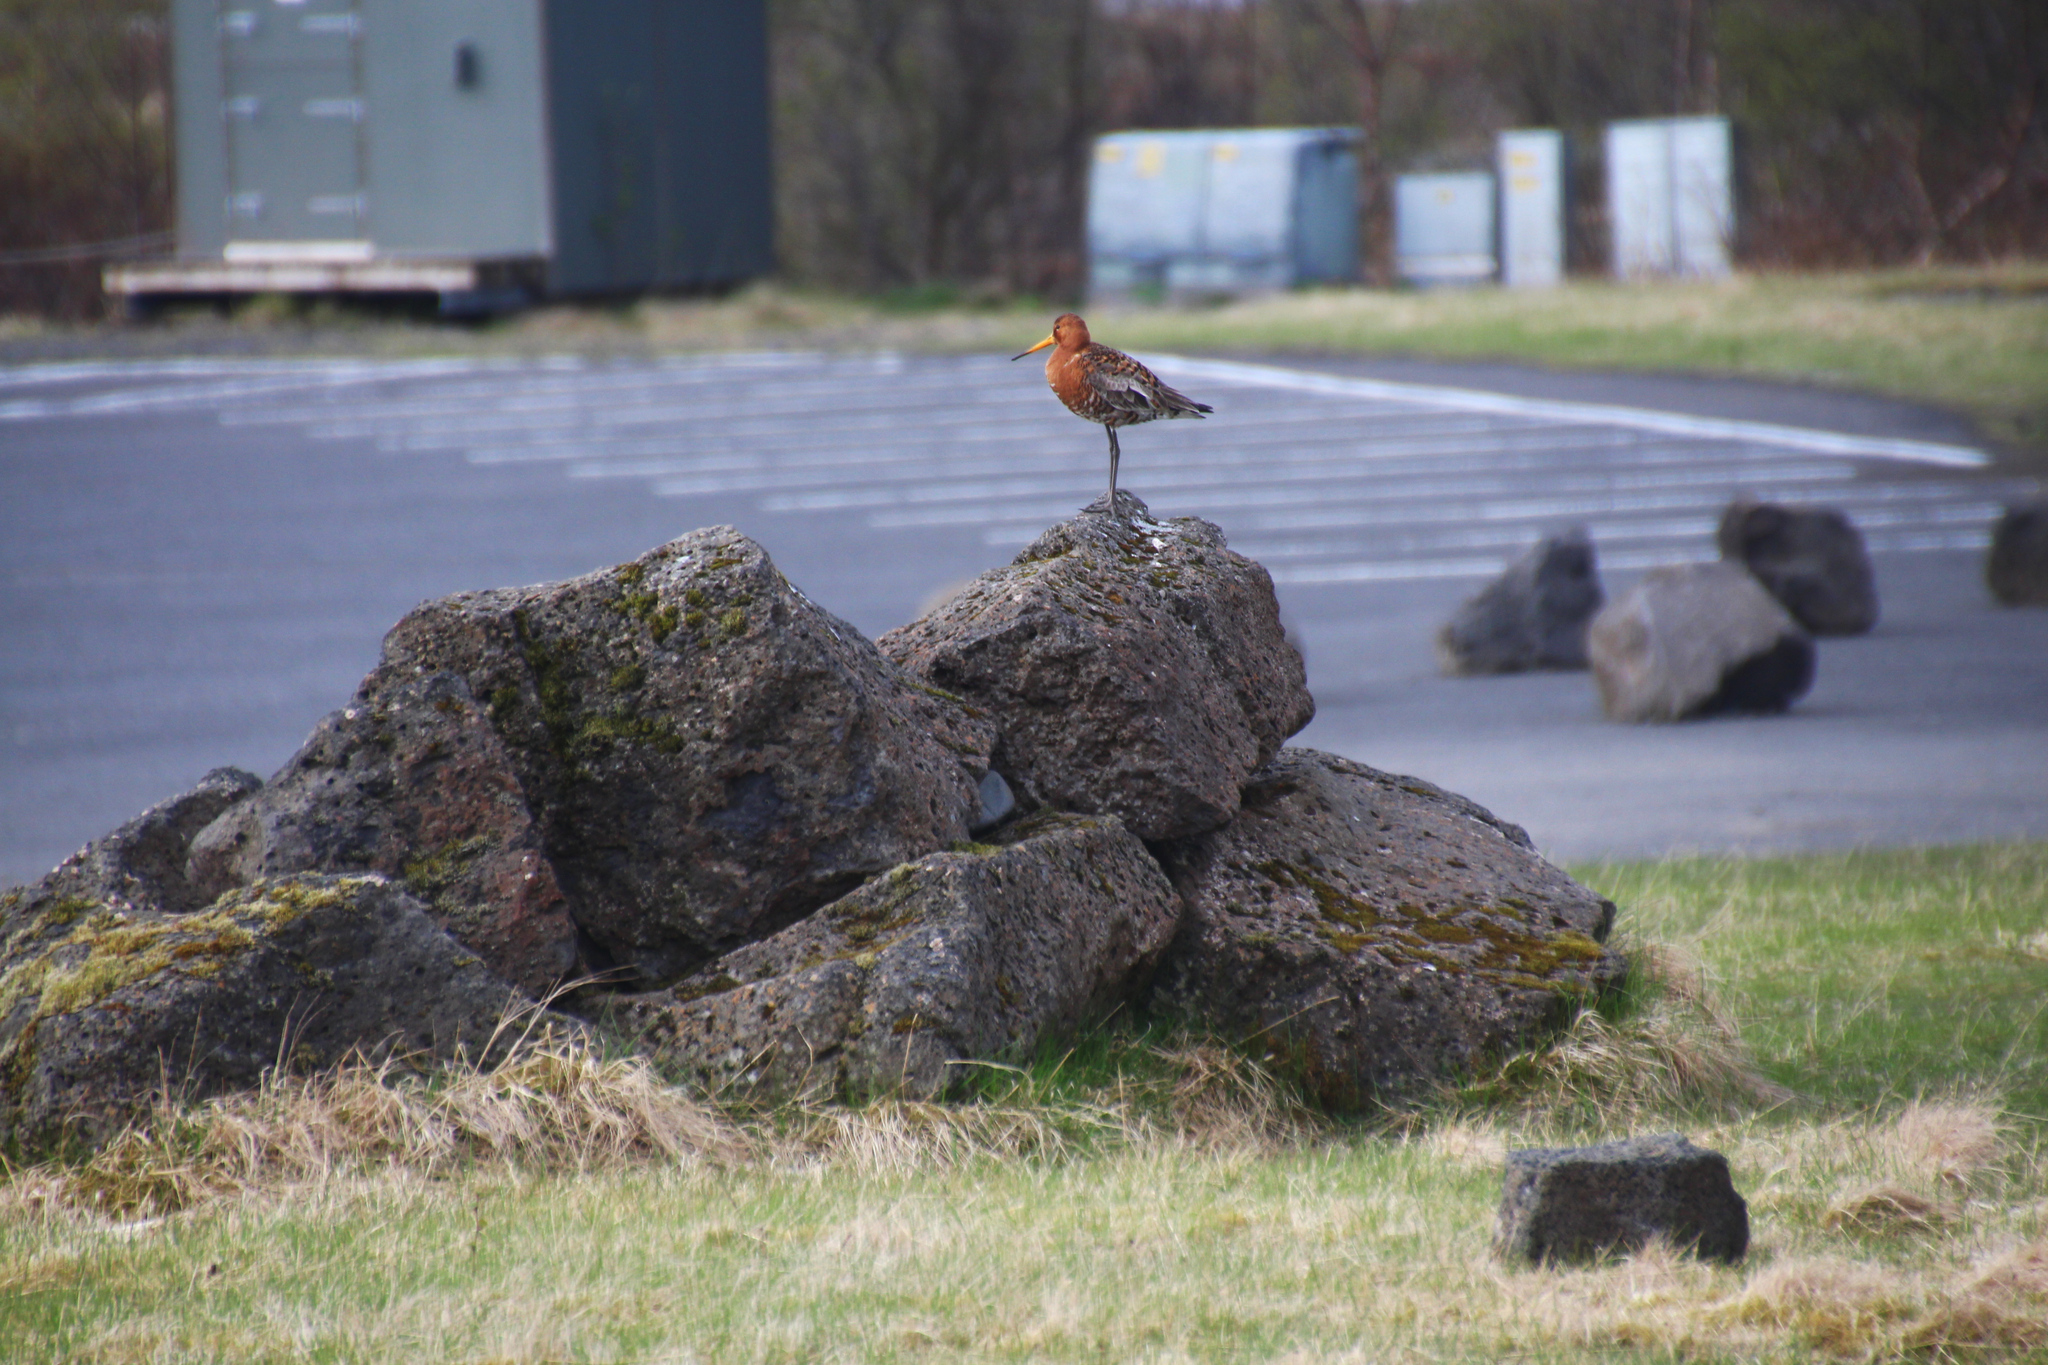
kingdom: Animalia
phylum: Chordata
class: Aves
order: Charadriiformes
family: Scolopacidae
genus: Limosa
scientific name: Limosa limosa
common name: Black-tailed godwit
